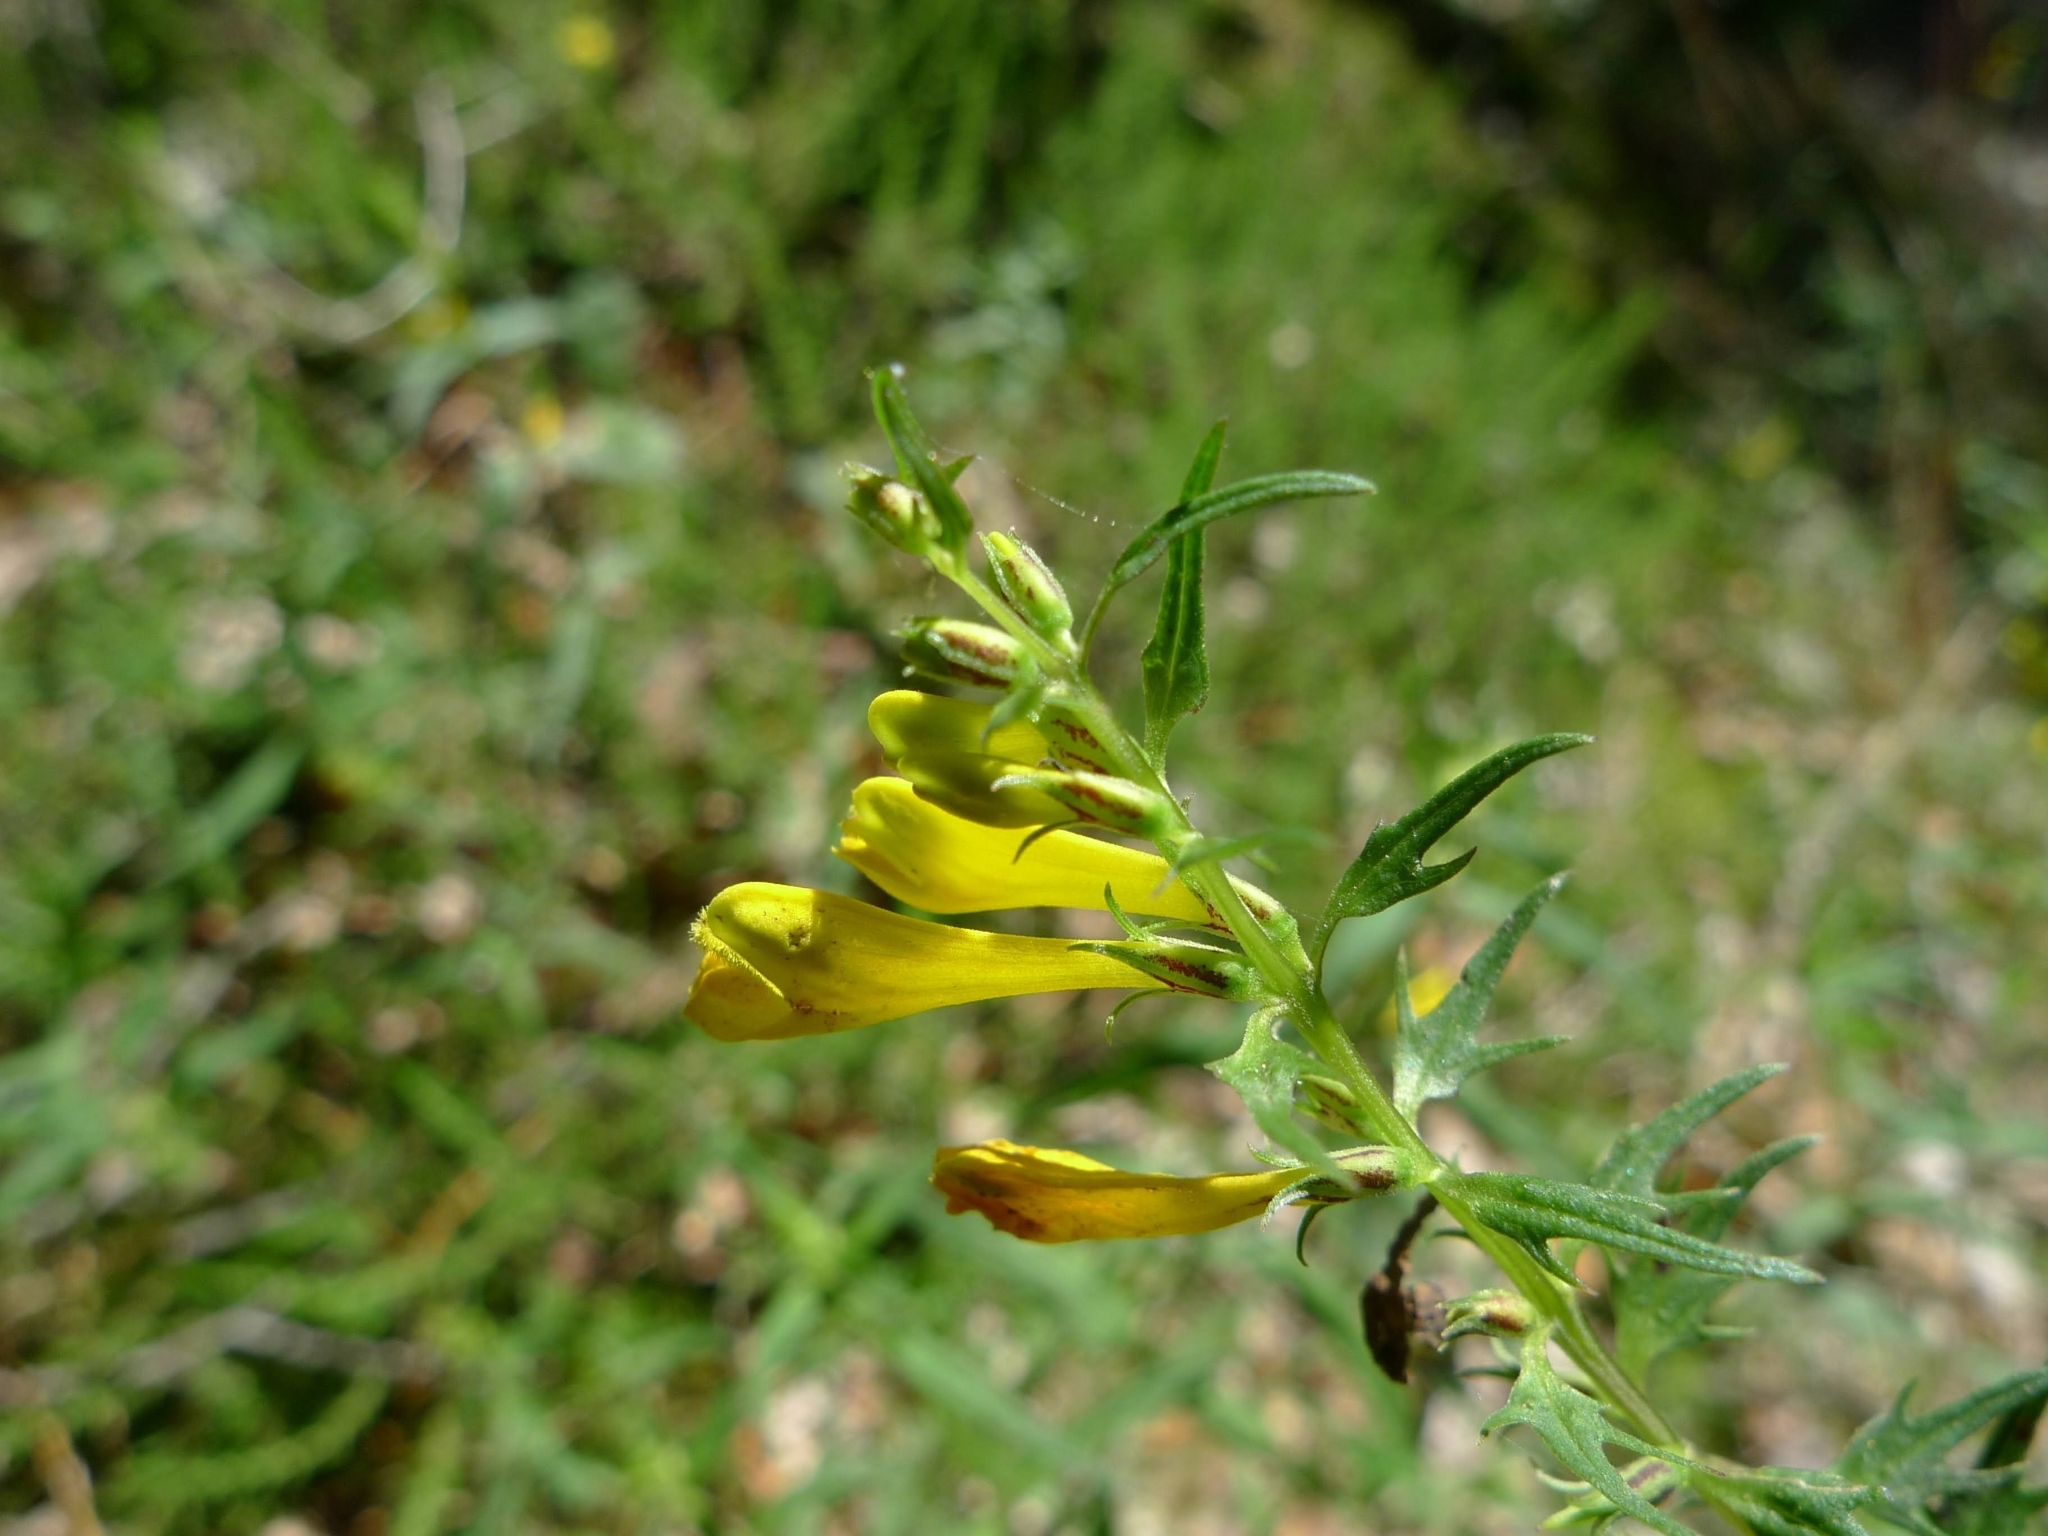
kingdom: Plantae
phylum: Tracheophyta
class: Magnoliopsida
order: Lamiales
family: Orobanchaceae
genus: Melampyrum
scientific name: Melampyrum pratense
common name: Common cow-wheat
